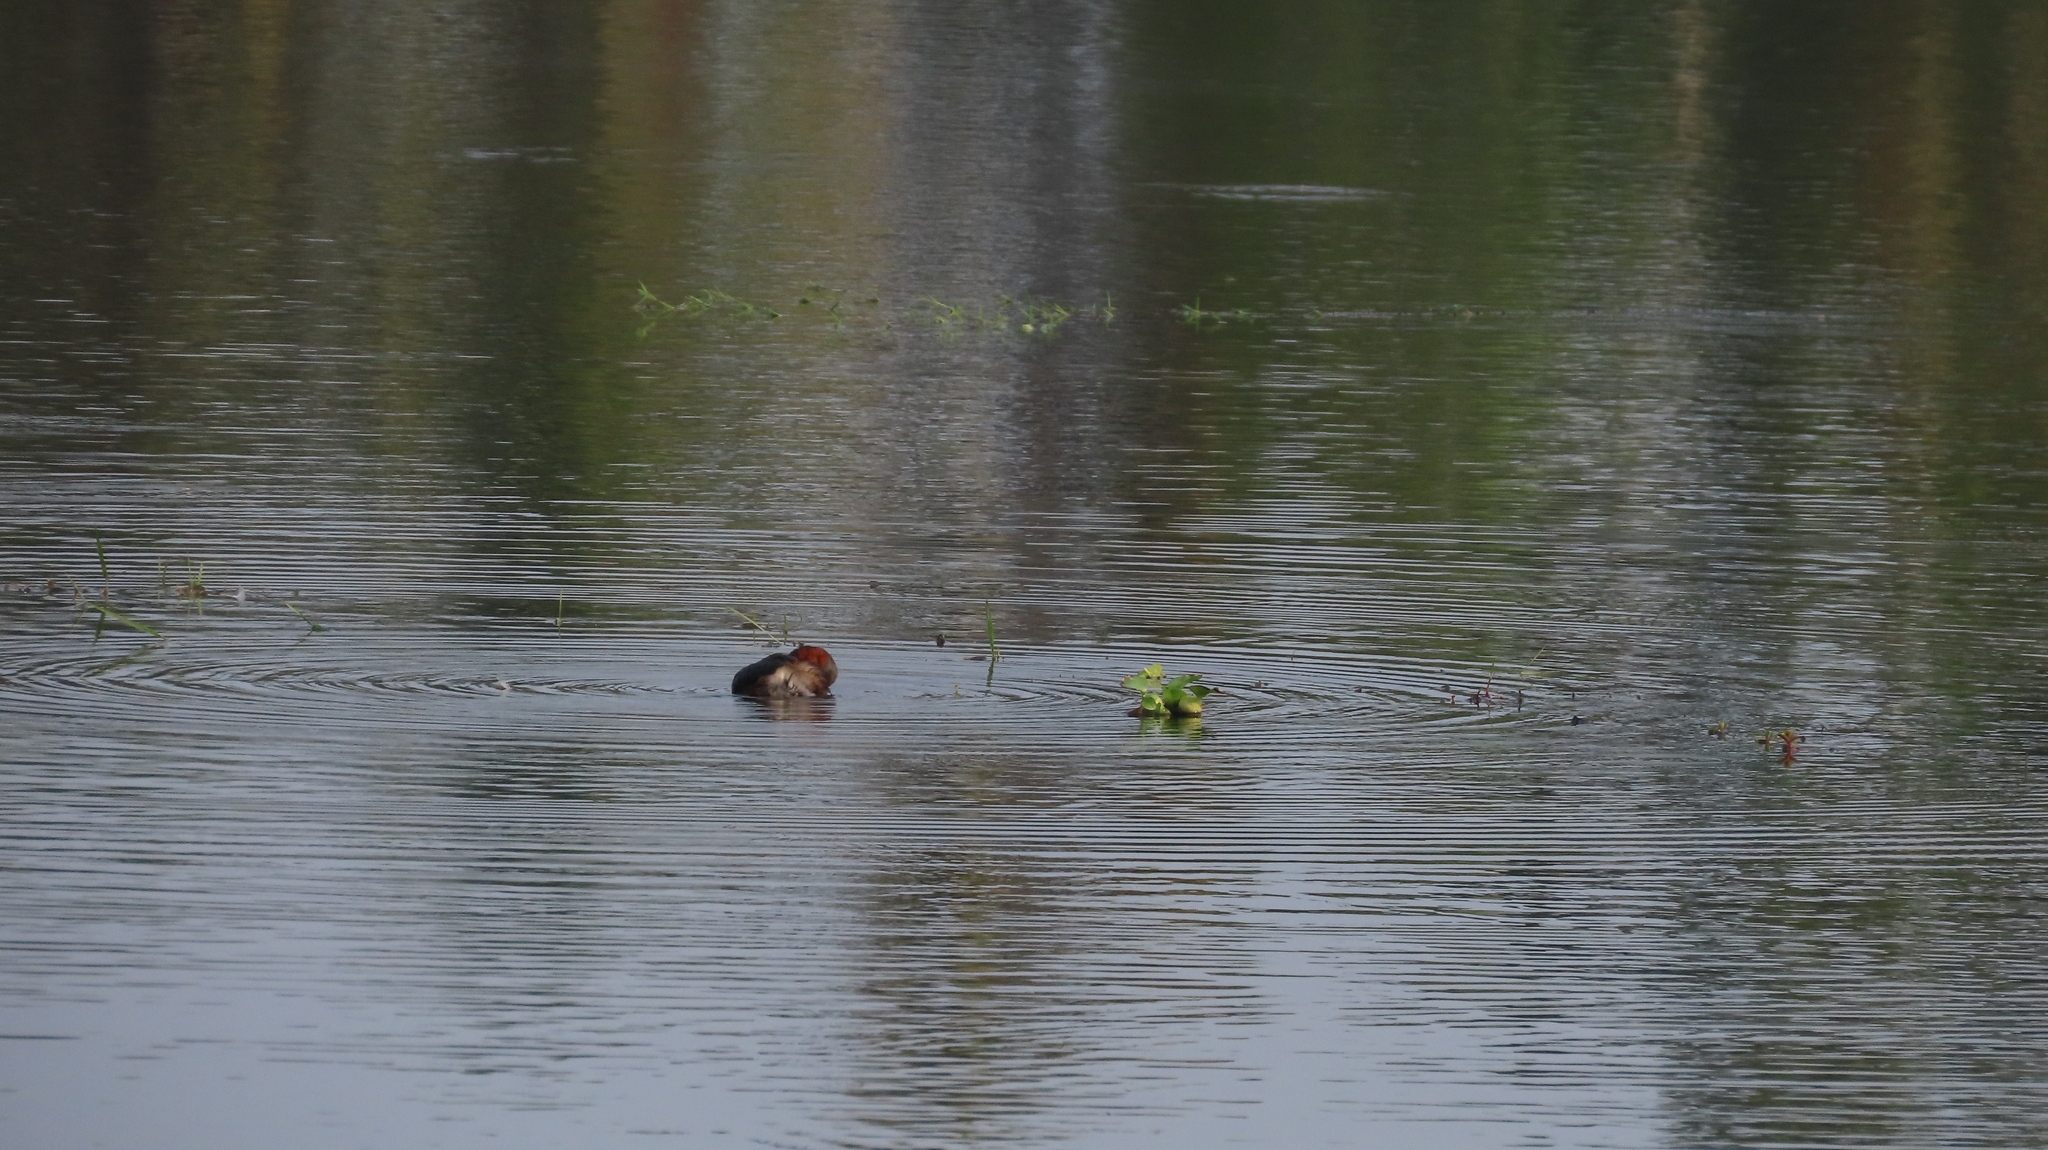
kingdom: Animalia
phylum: Chordata
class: Aves
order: Podicipediformes
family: Podicipedidae
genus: Tachybaptus
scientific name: Tachybaptus ruficollis
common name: Little grebe
